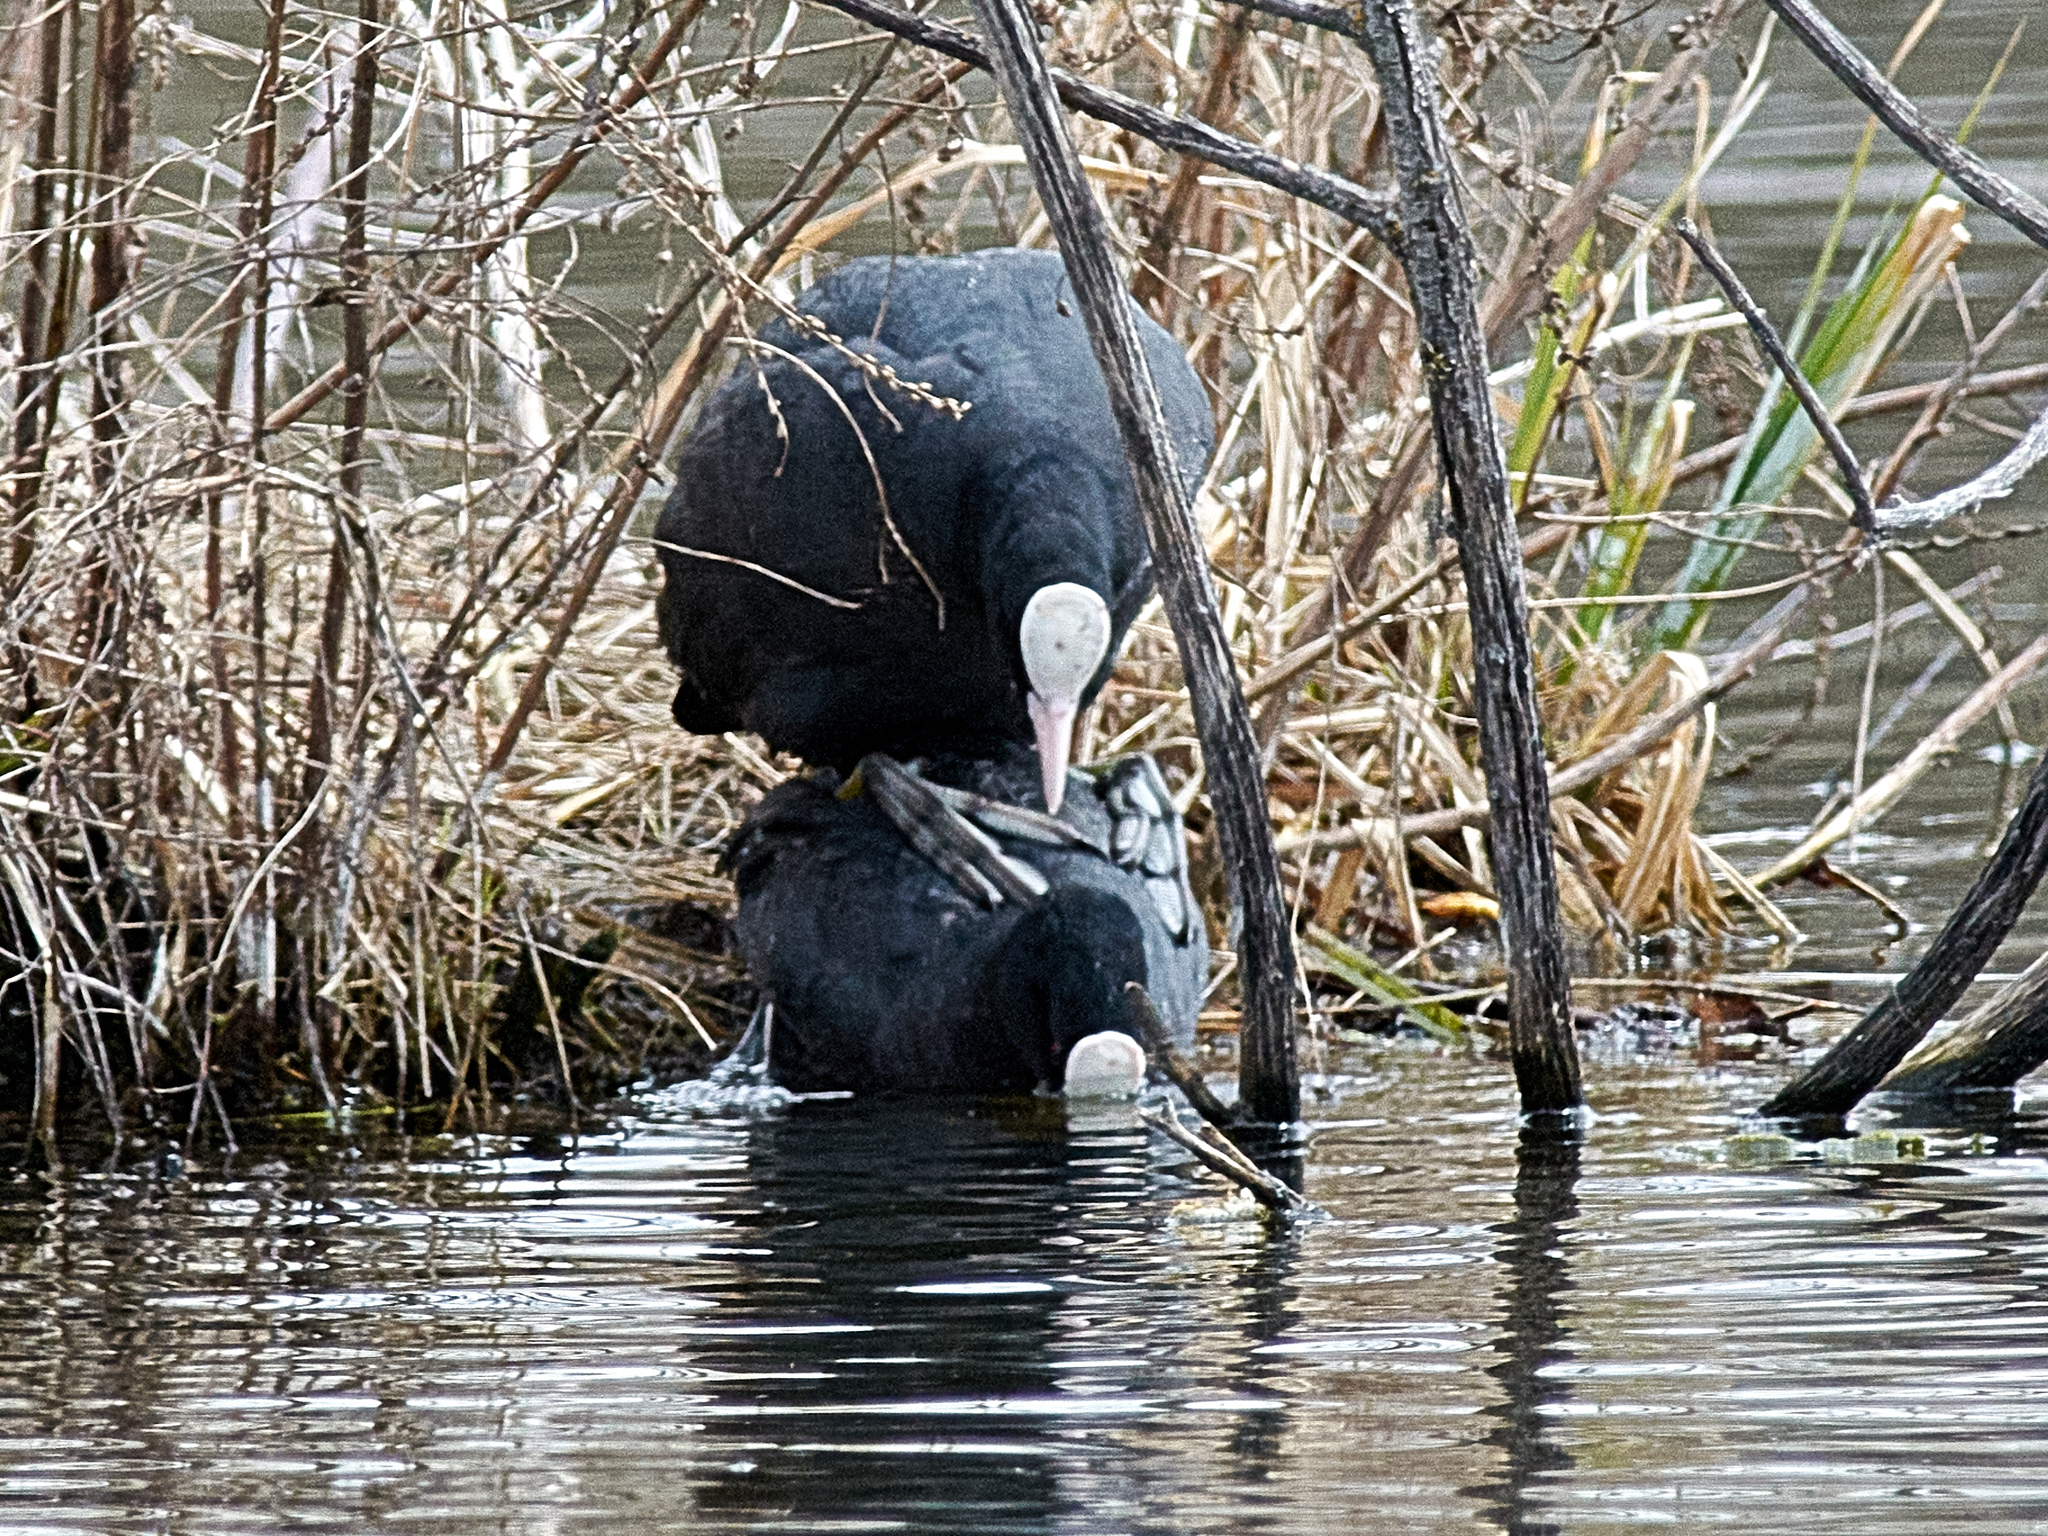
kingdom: Animalia
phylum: Chordata
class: Aves
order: Gruiformes
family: Rallidae
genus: Fulica
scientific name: Fulica atra
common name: Eurasian coot
